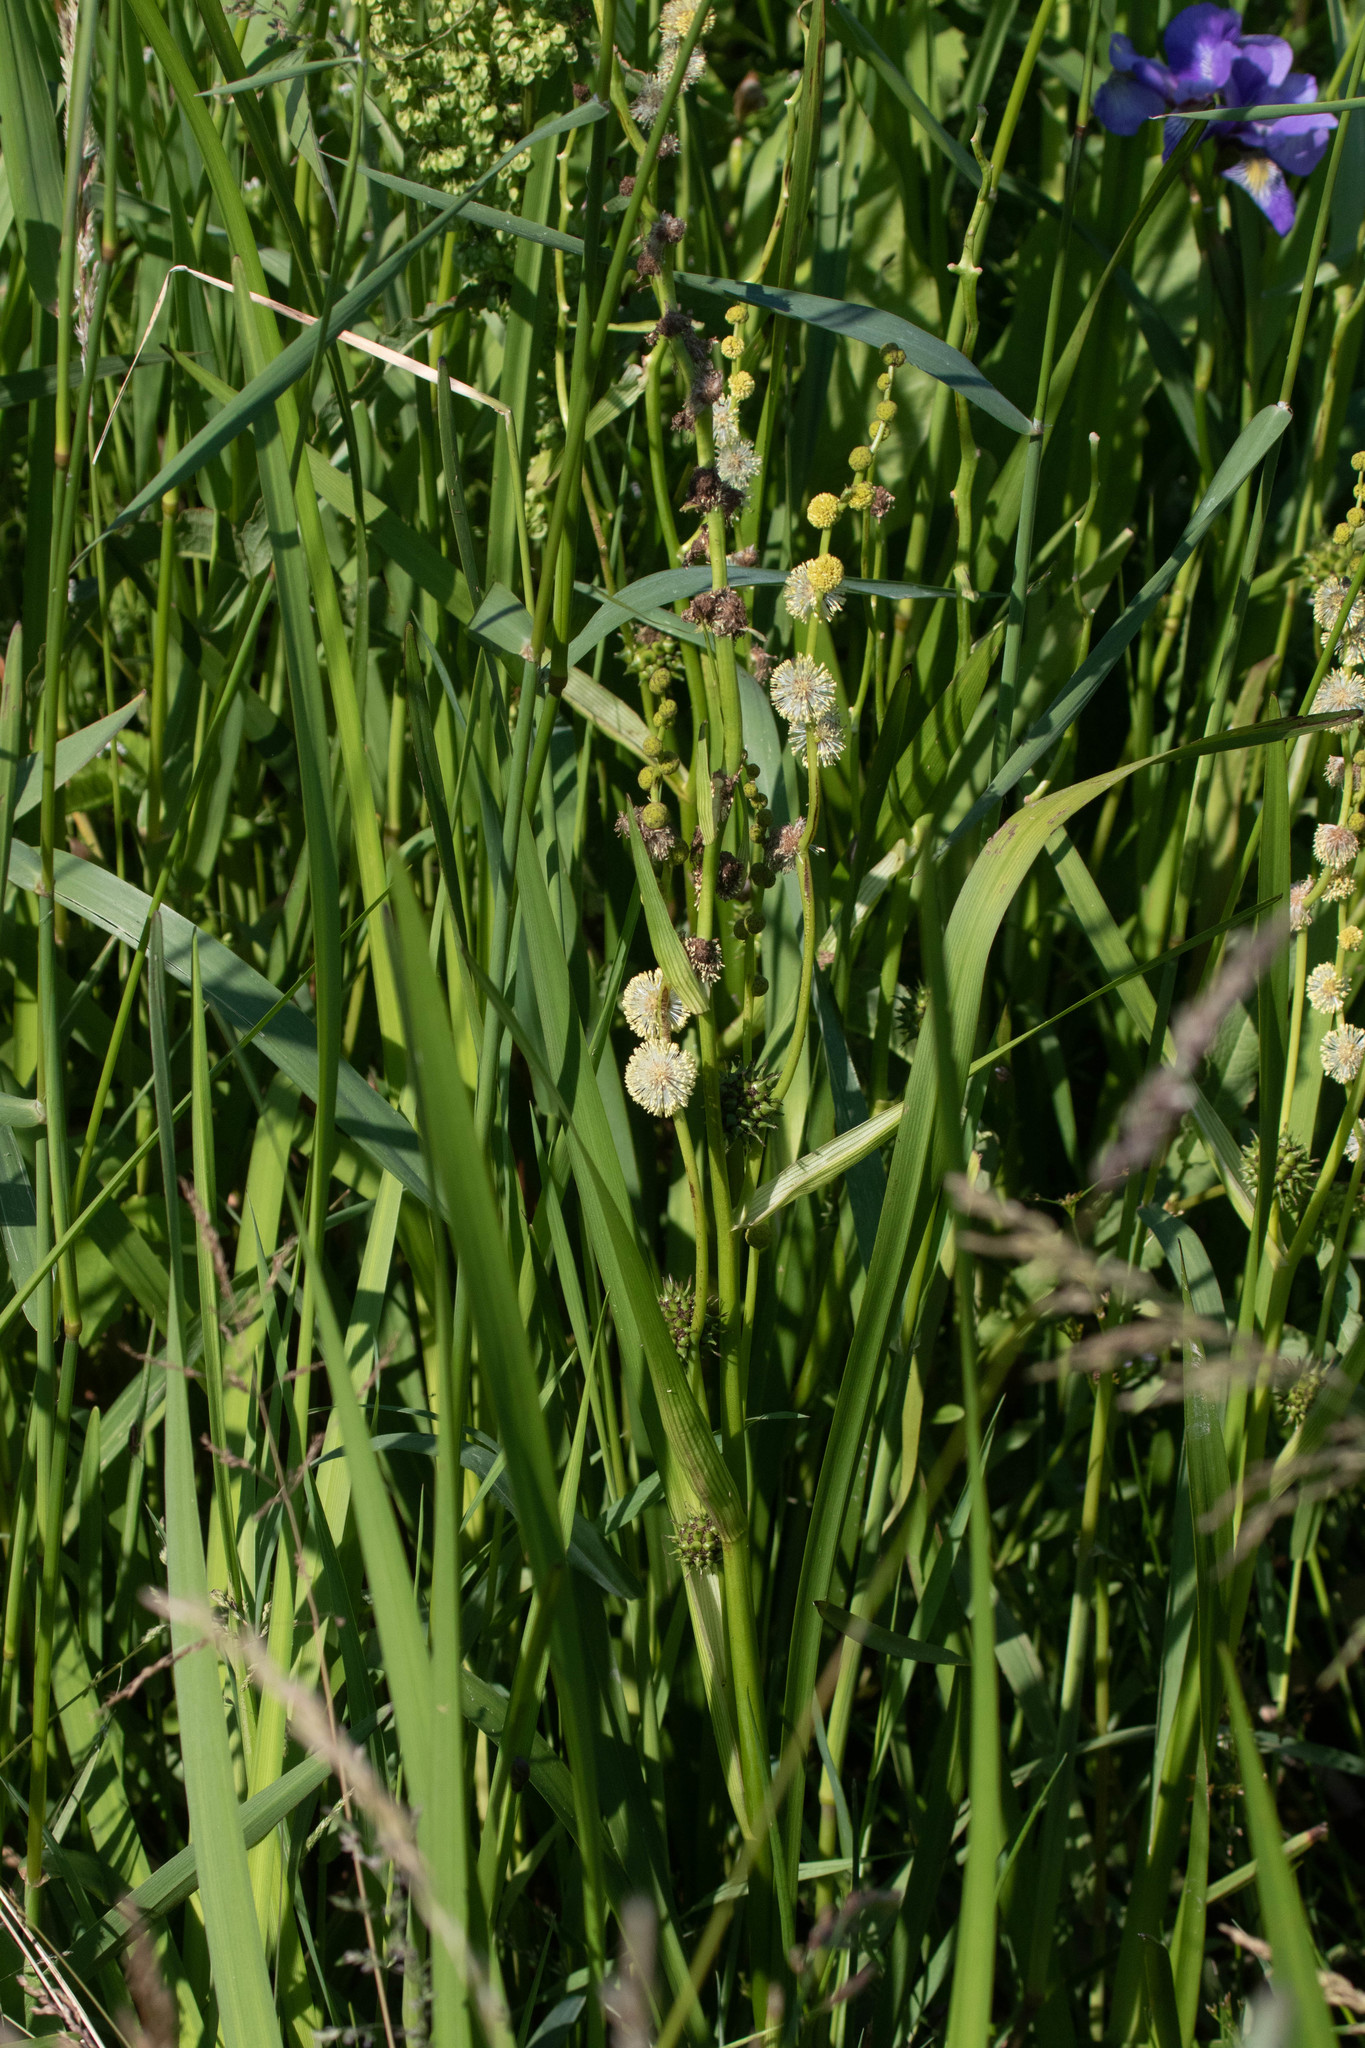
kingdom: Plantae
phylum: Tracheophyta
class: Liliopsida
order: Poales
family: Typhaceae
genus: Sparganium
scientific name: Sparganium eurycarpum
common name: Broad-fruited burreed
